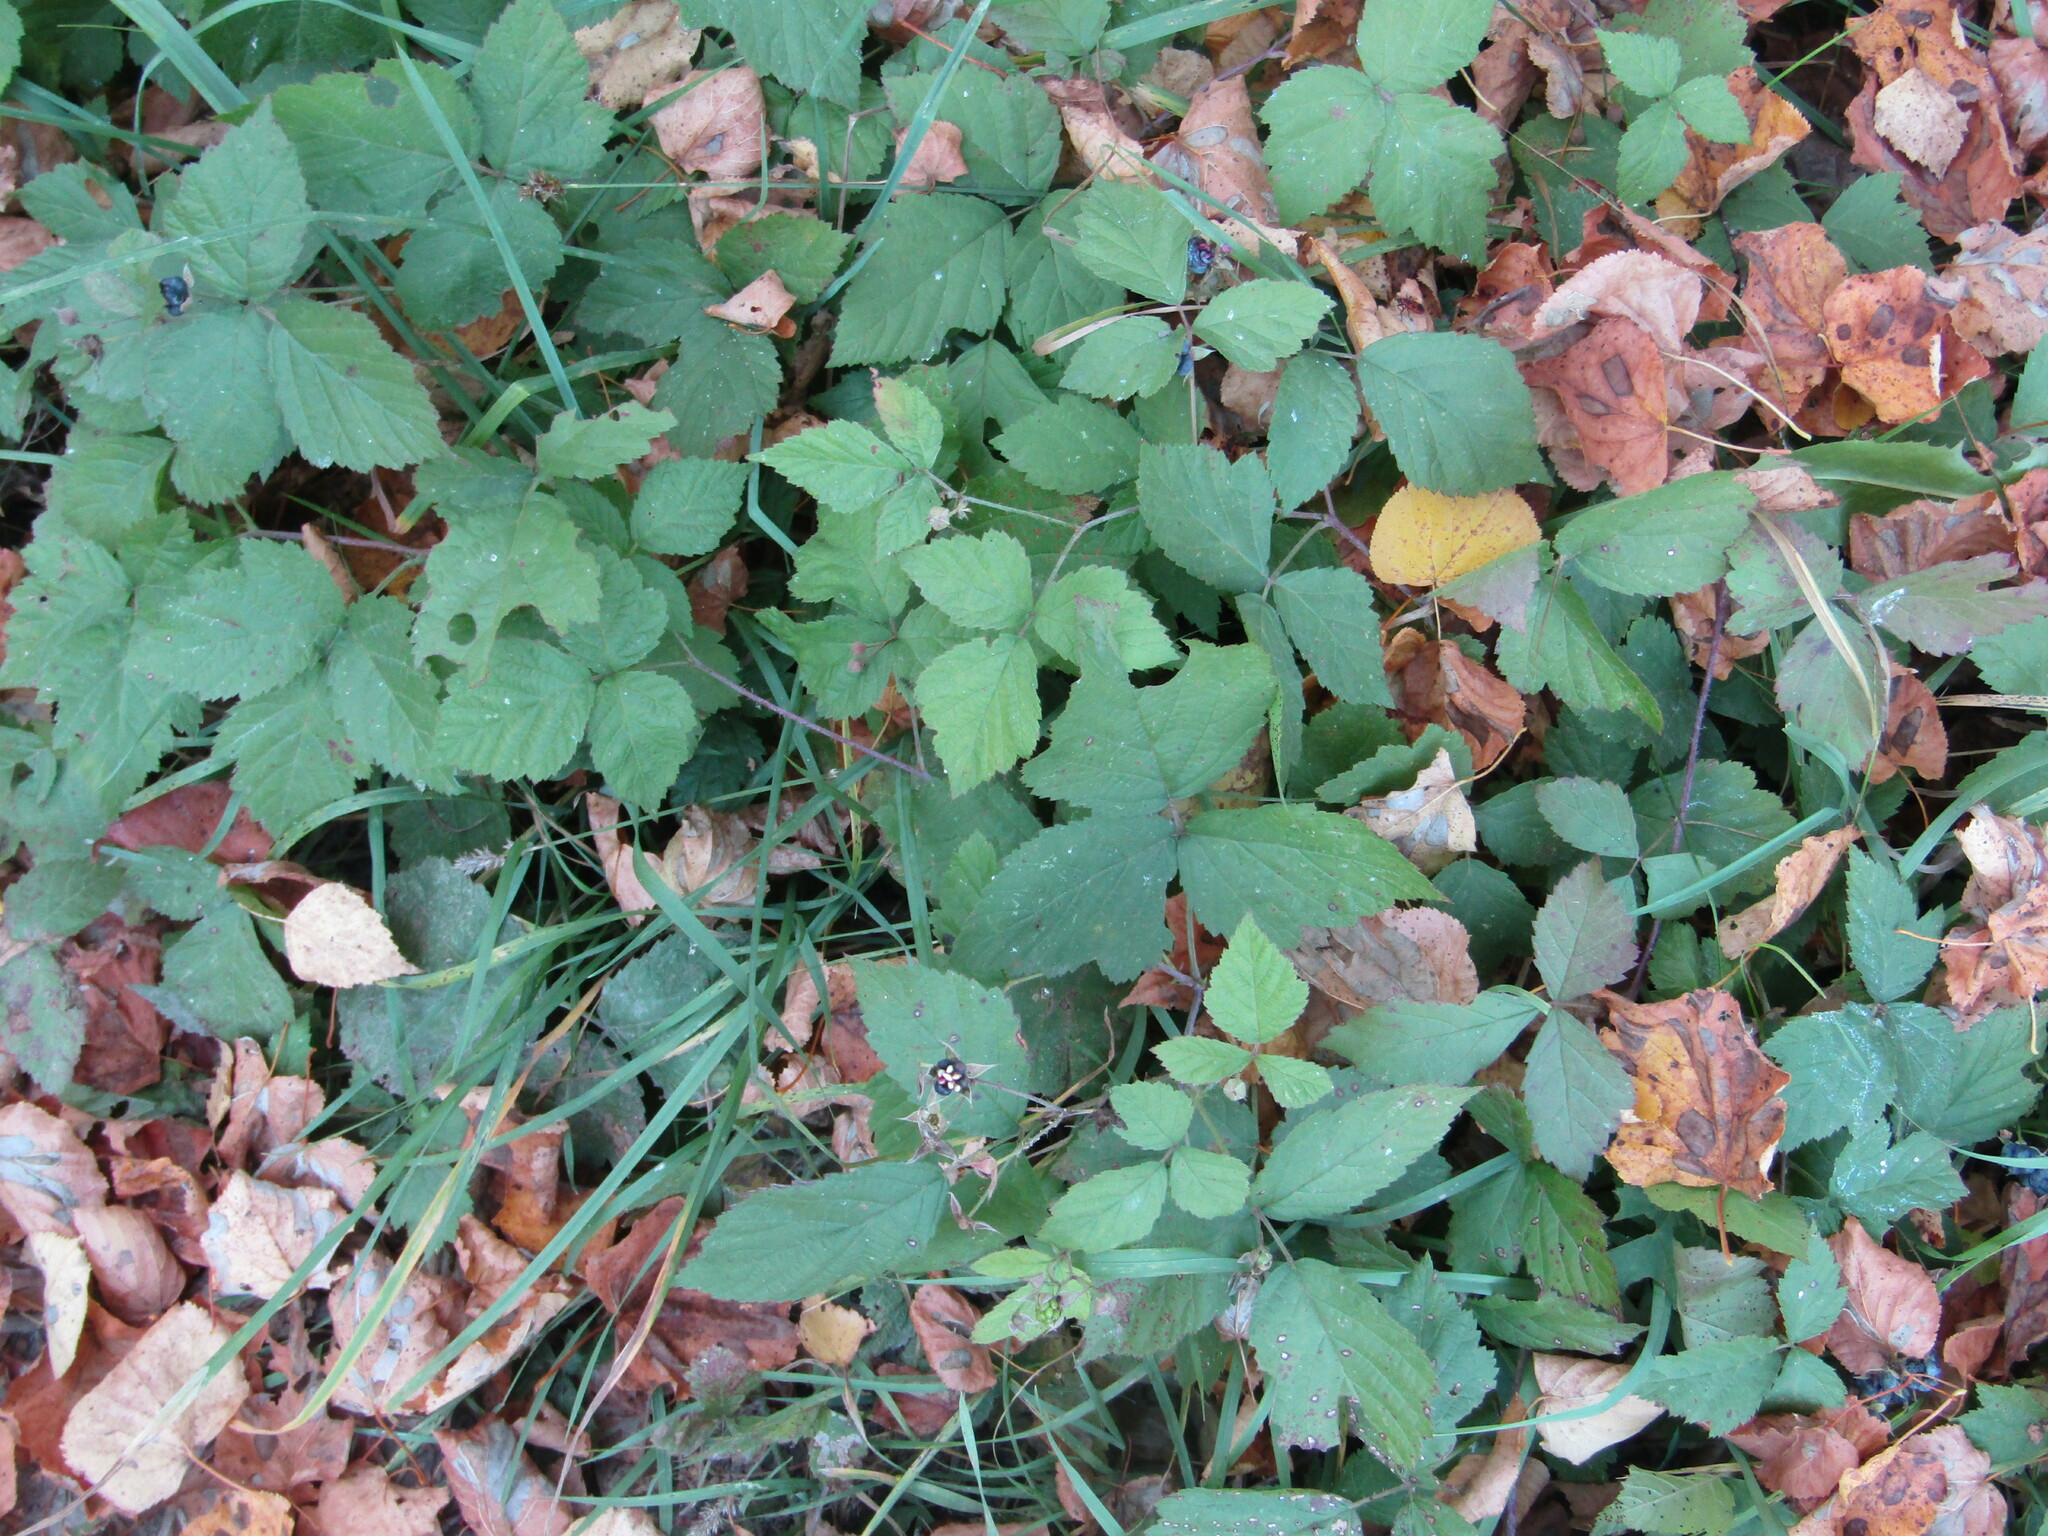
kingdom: Plantae
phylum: Tracheophyta
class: Magnoliopsida
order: Rosales
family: Rosaceae
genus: Rubus
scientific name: Rubus caesius
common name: Dewberry
